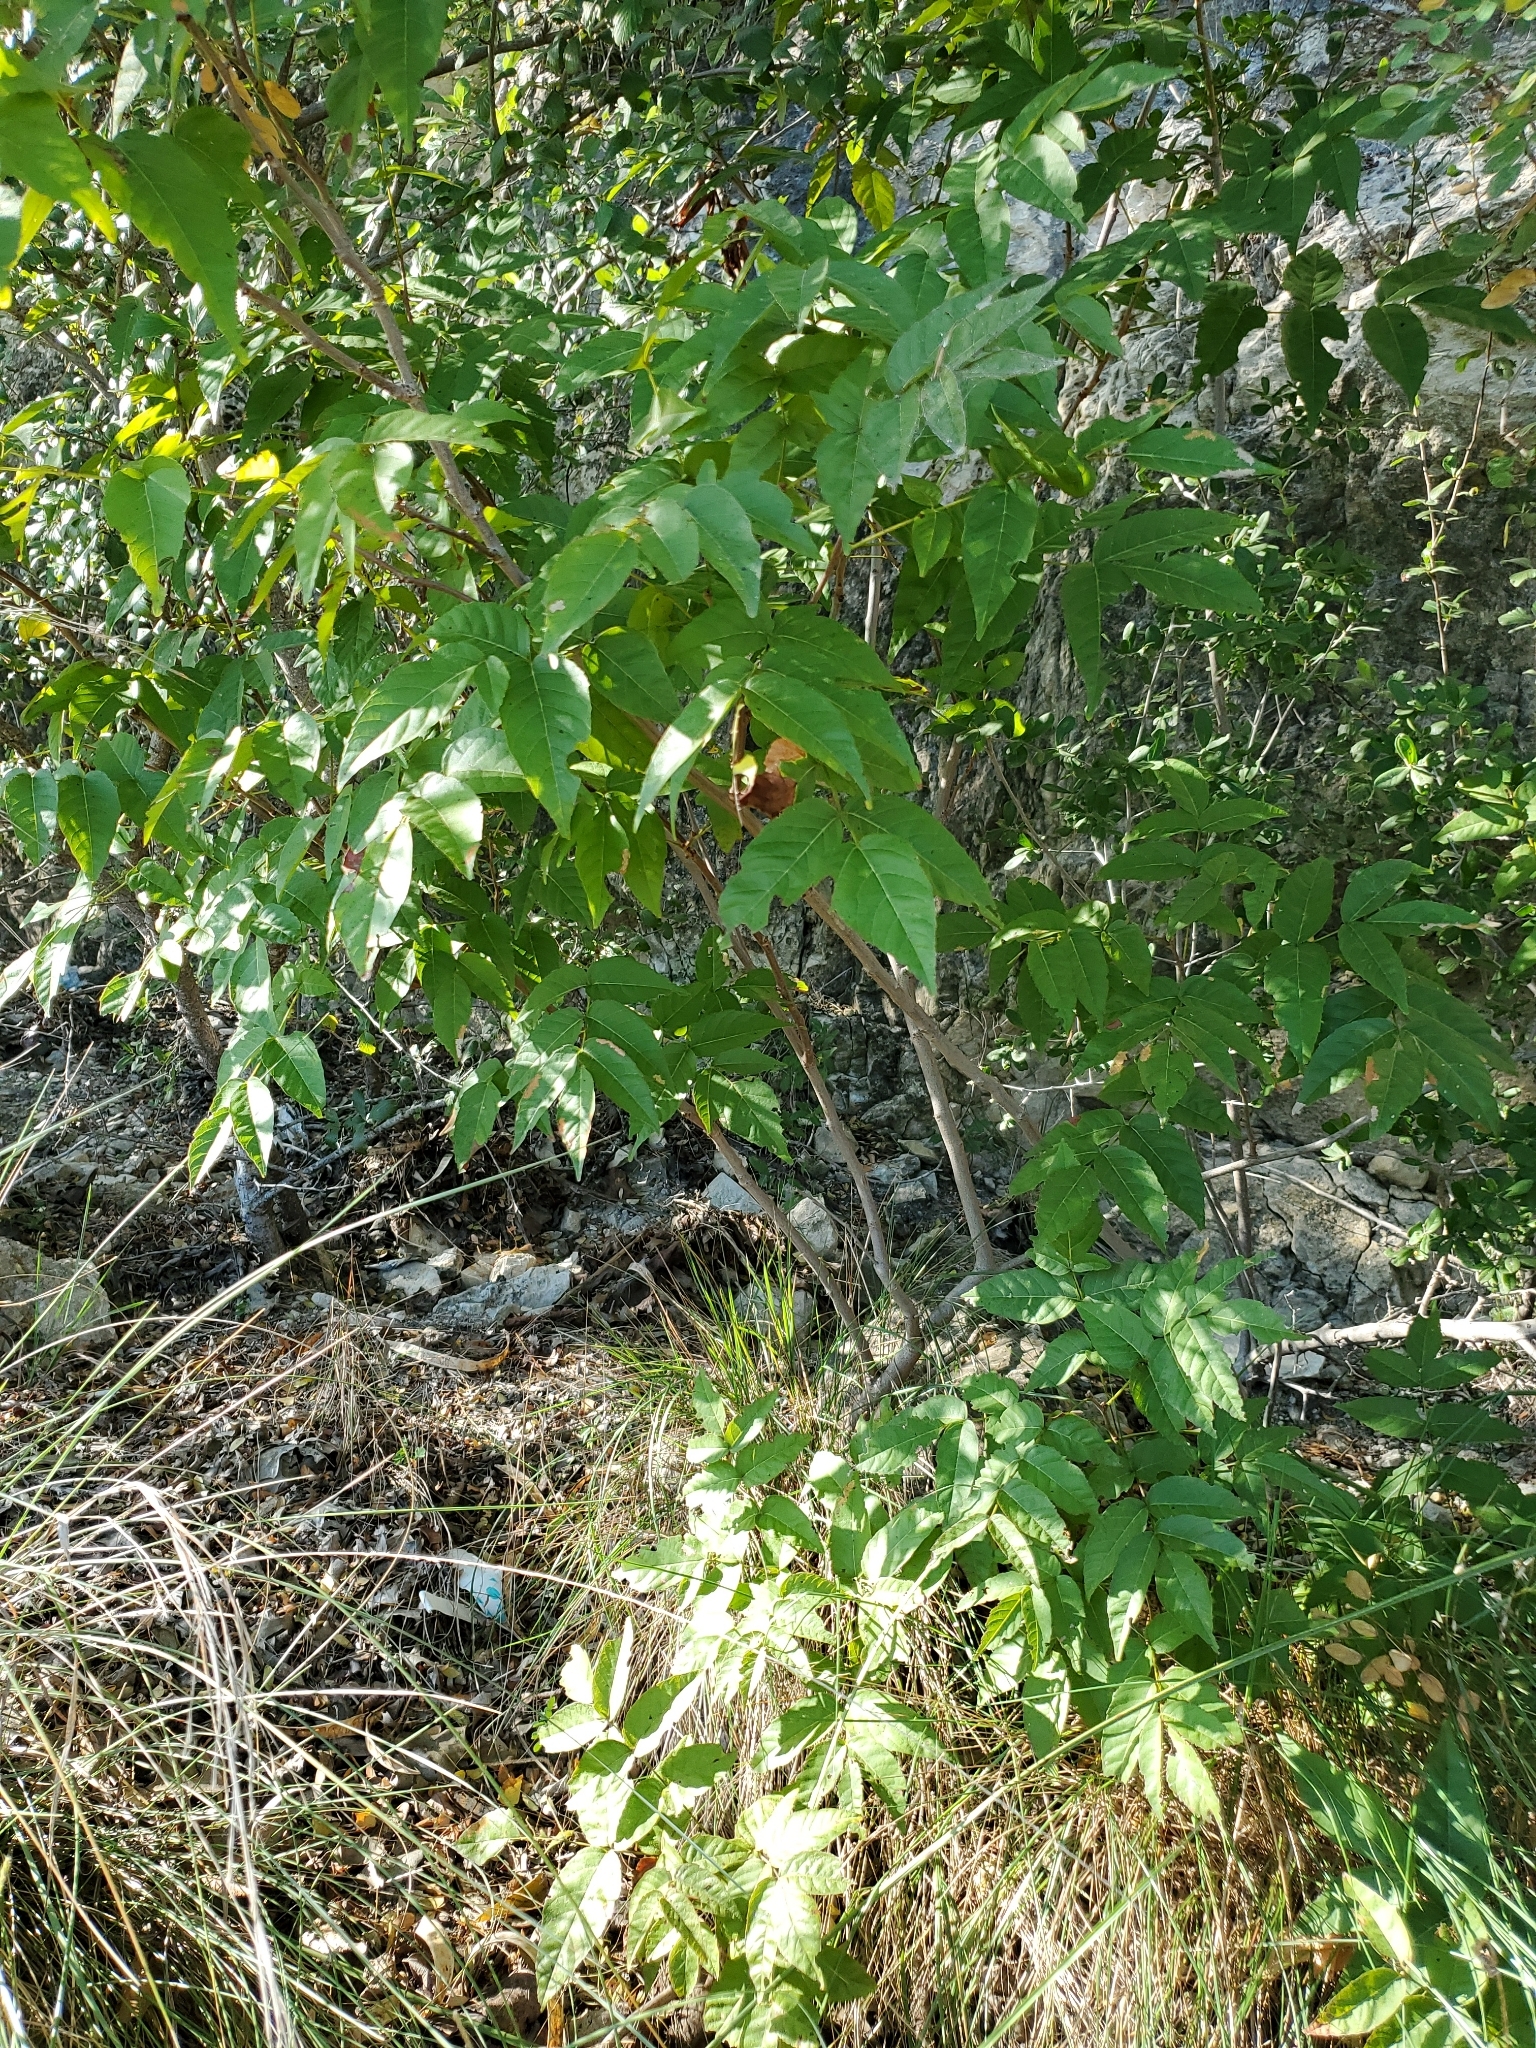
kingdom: Plantae
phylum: Tracheophyta
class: Magnoliopsida
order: Sapindales
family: Sapindaceae
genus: Ungnadia
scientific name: Ungnadia speciosa
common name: Texas-buckeye
